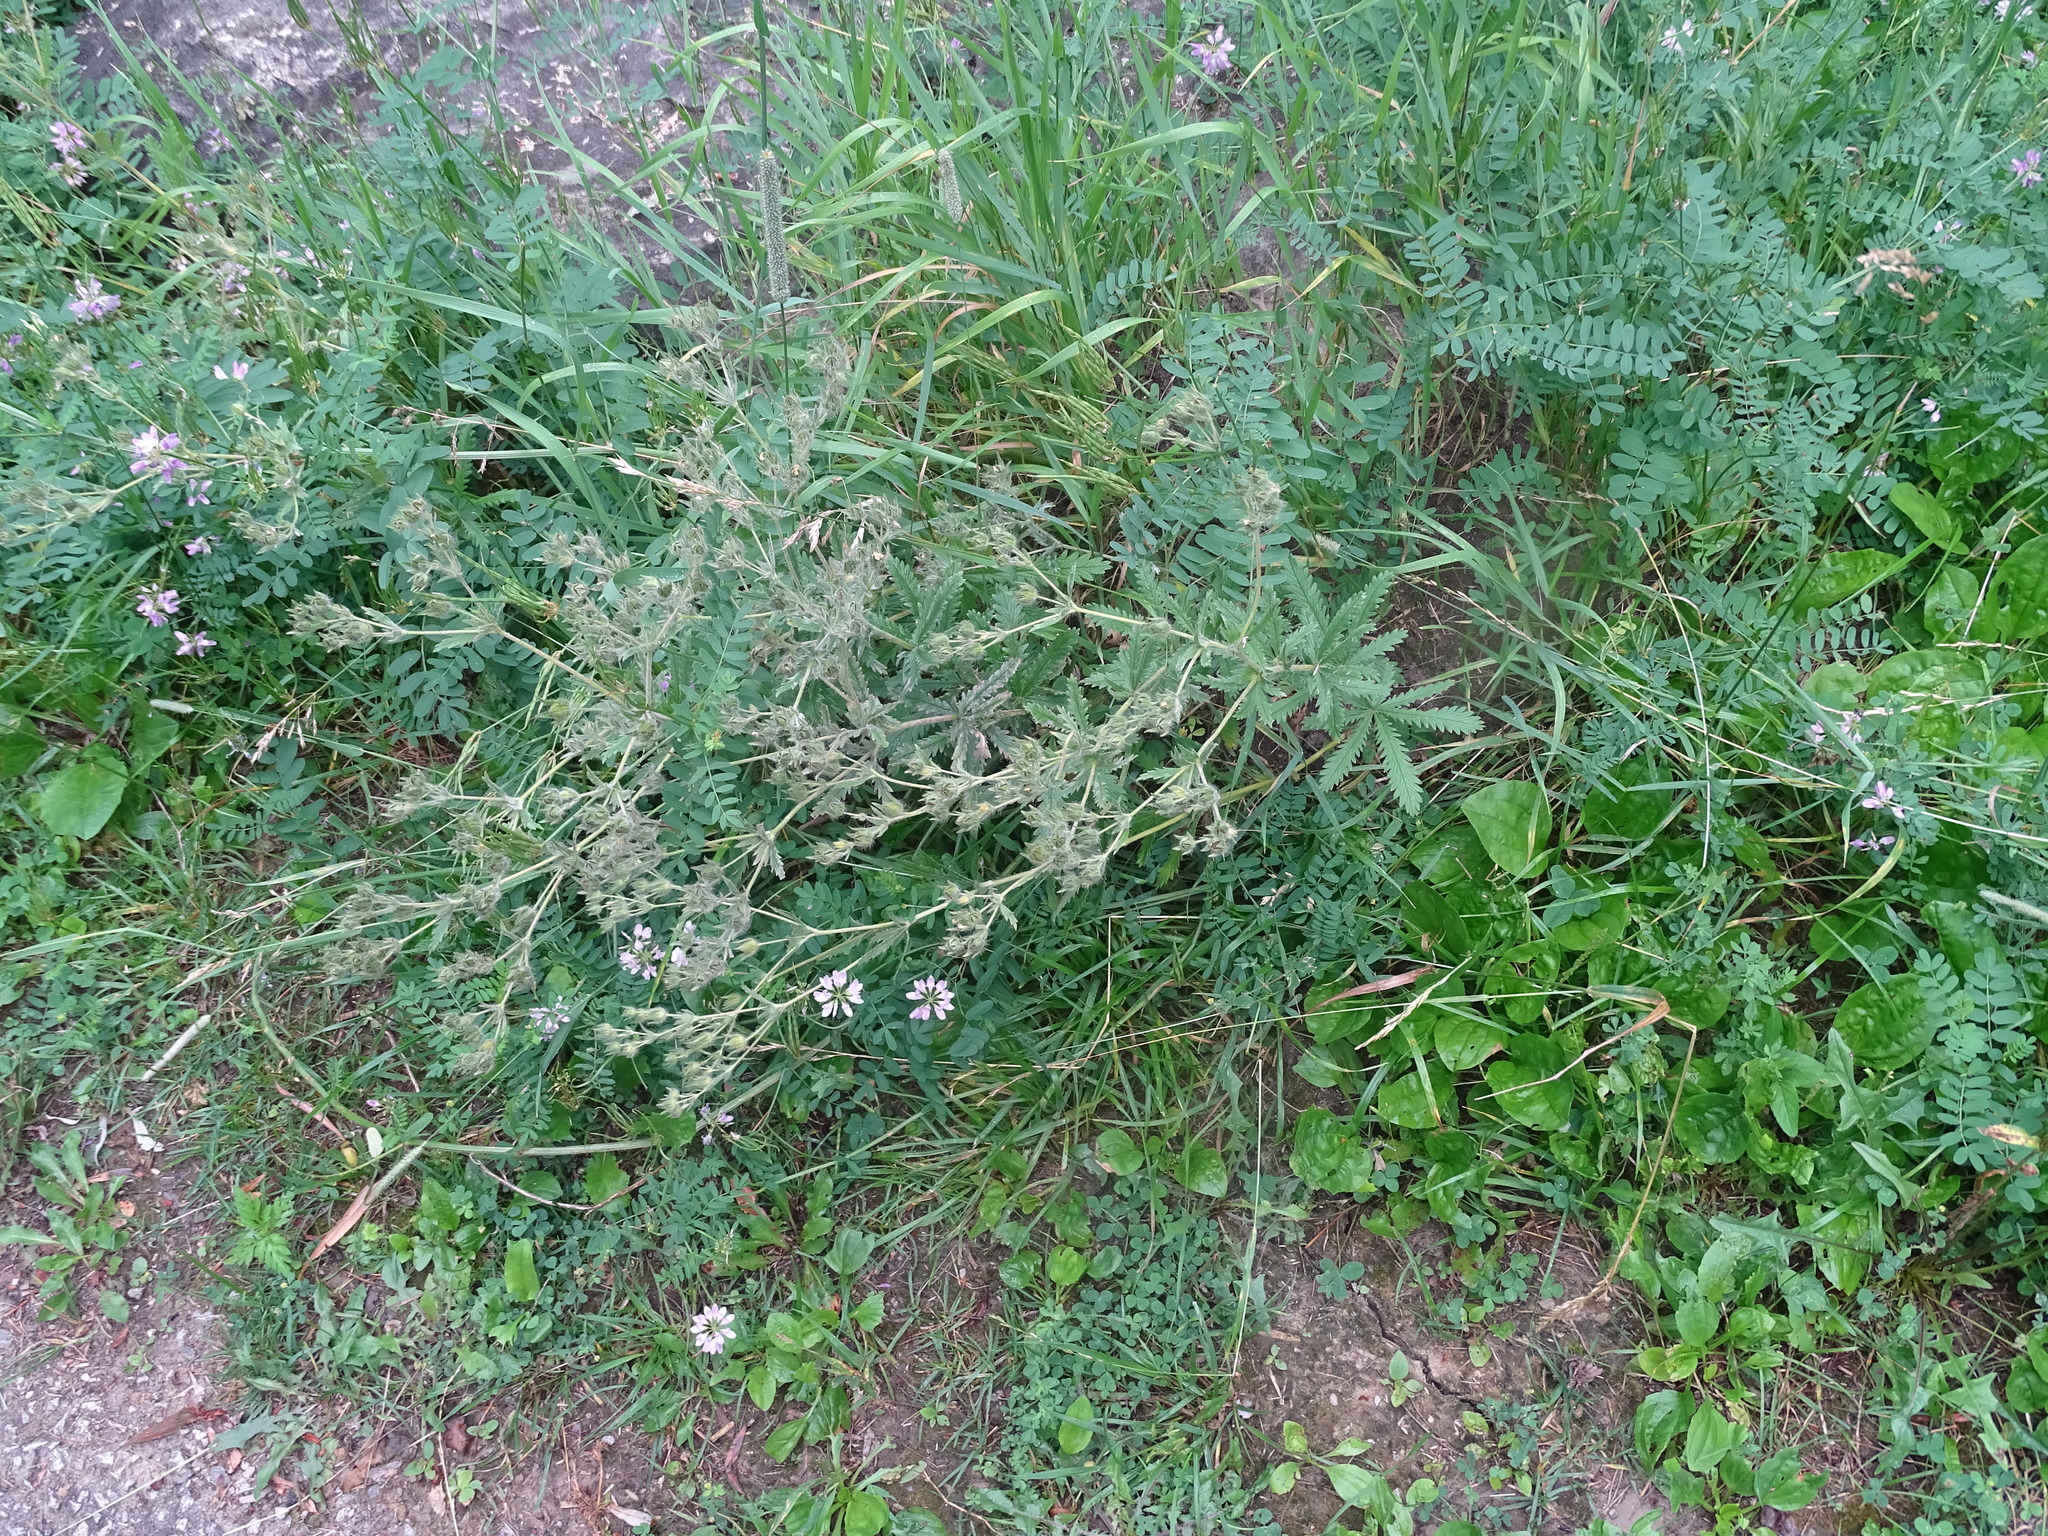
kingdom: Plantae
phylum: Tracheophyta
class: Magnoliopsida
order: Rosales
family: Rosaceae
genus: Potentilla
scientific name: Potentilla recta
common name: Sulphur cinquefoil
